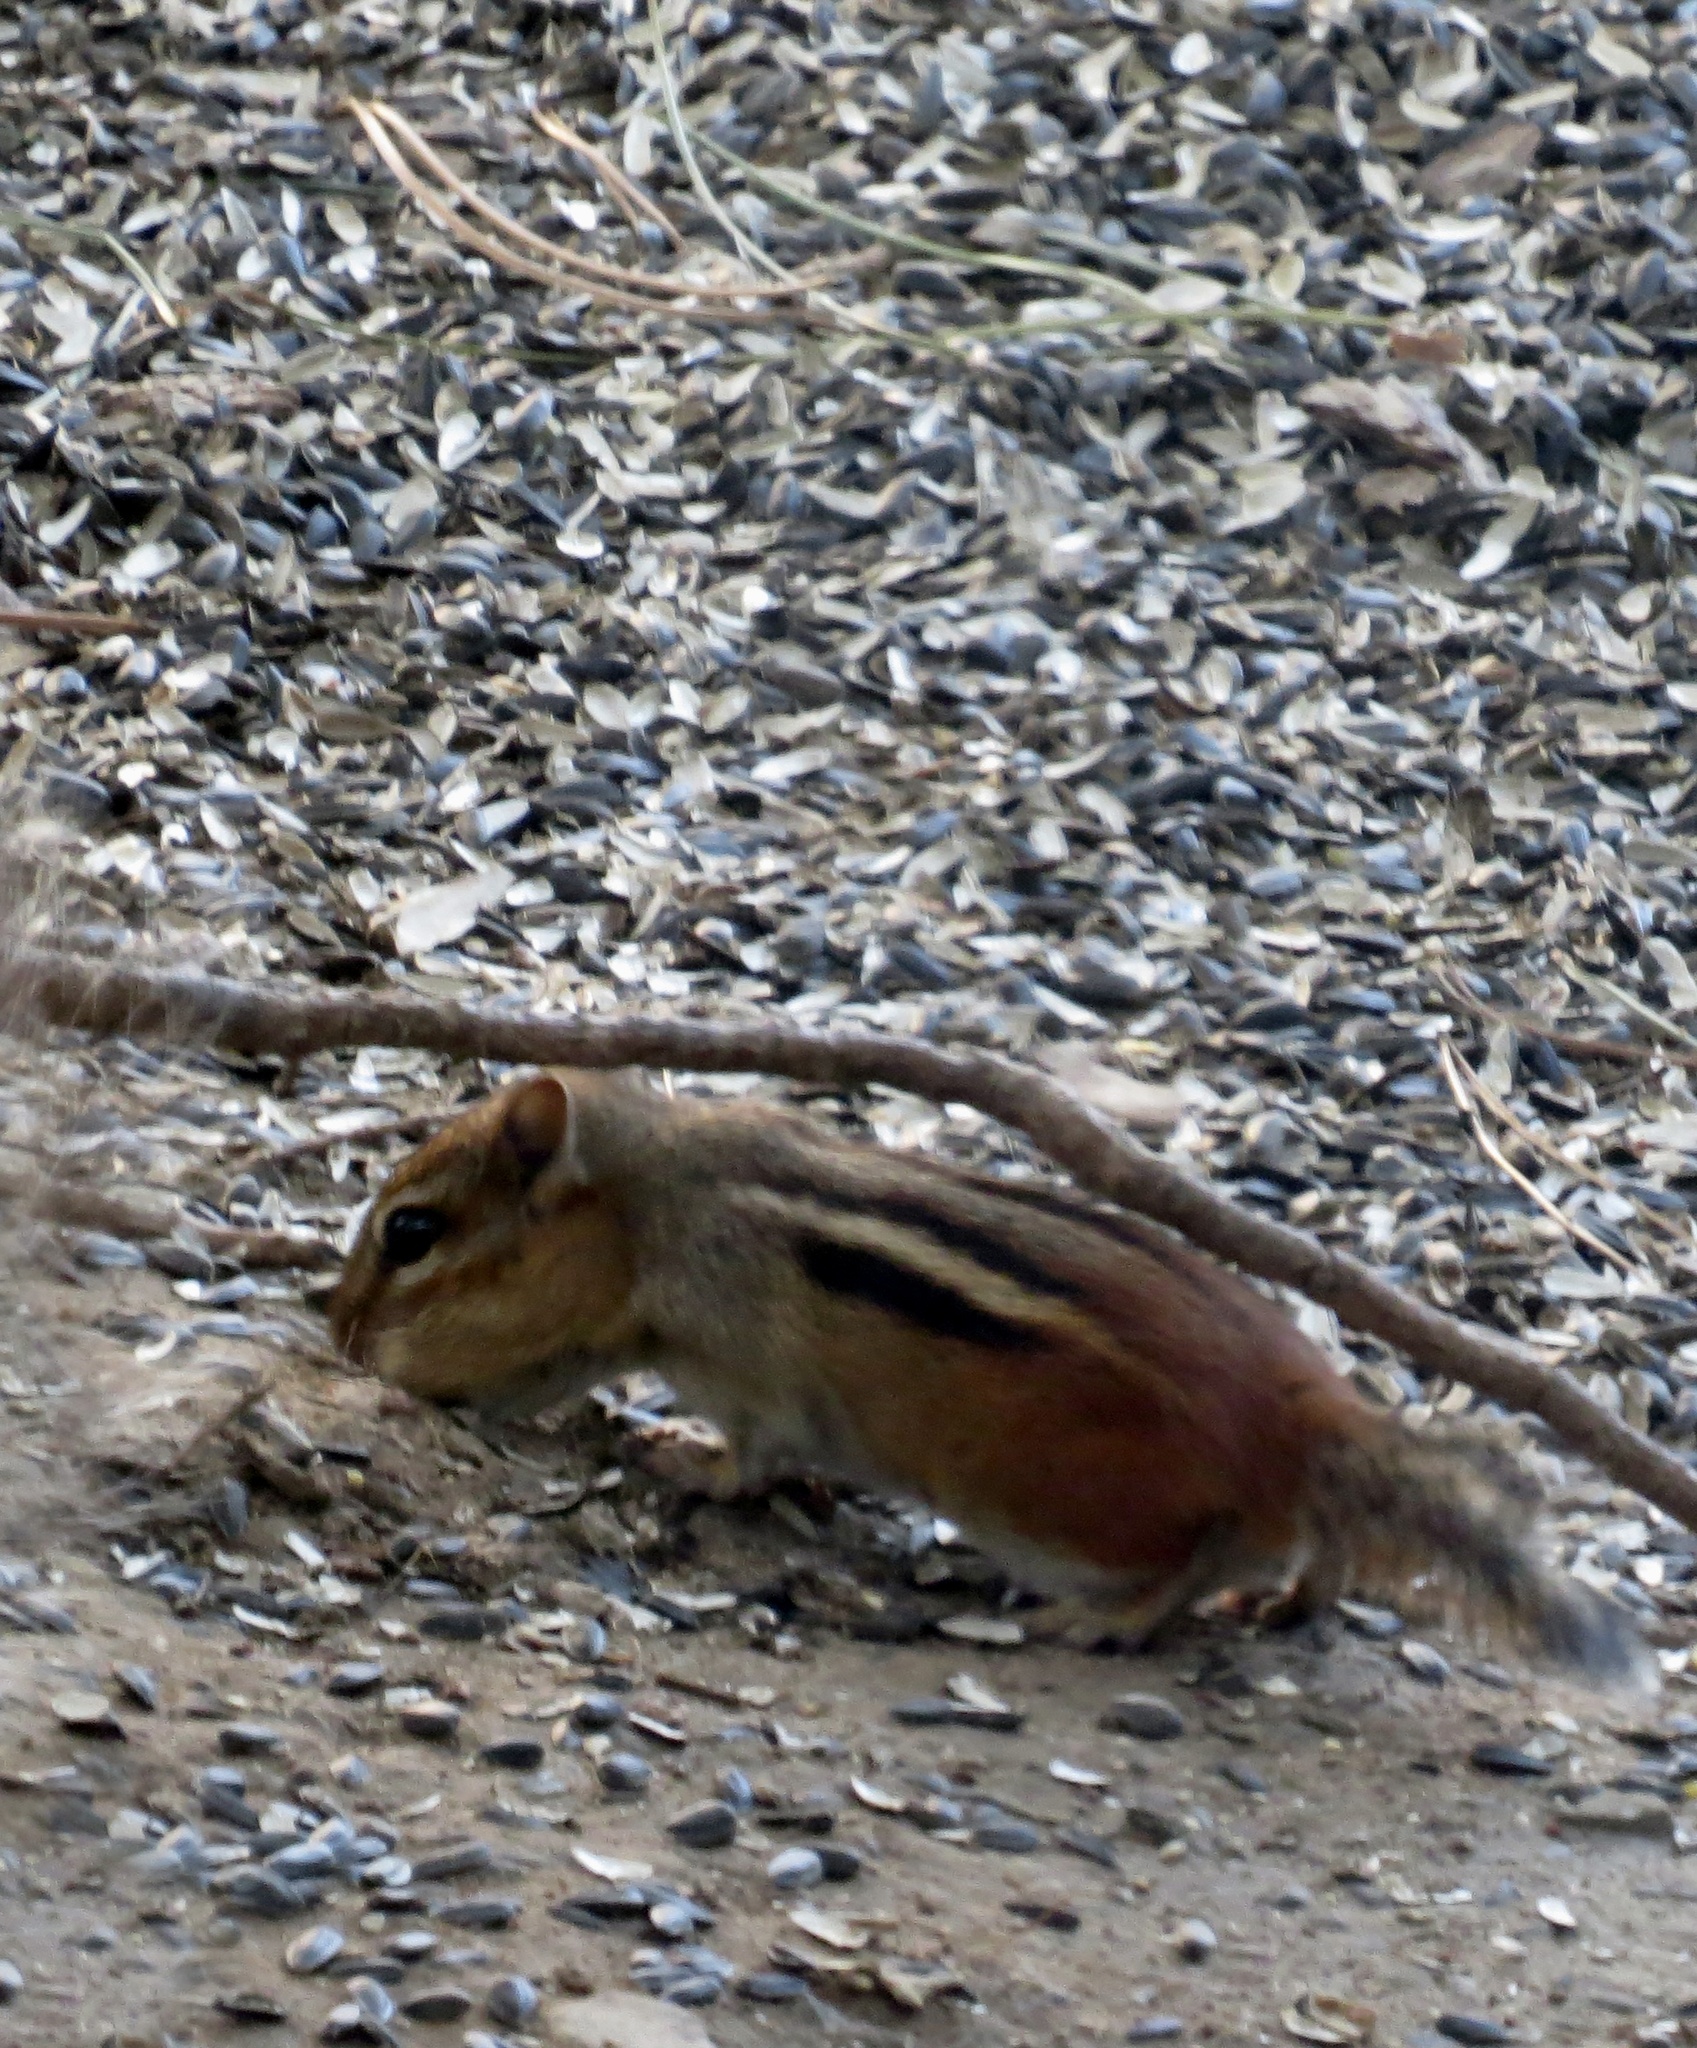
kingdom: Animalia
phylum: Chordata
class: Mammalia
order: Rodentia
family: Sciuridae
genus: Tamias
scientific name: Tamias striatus
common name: Eastern chipmunk
